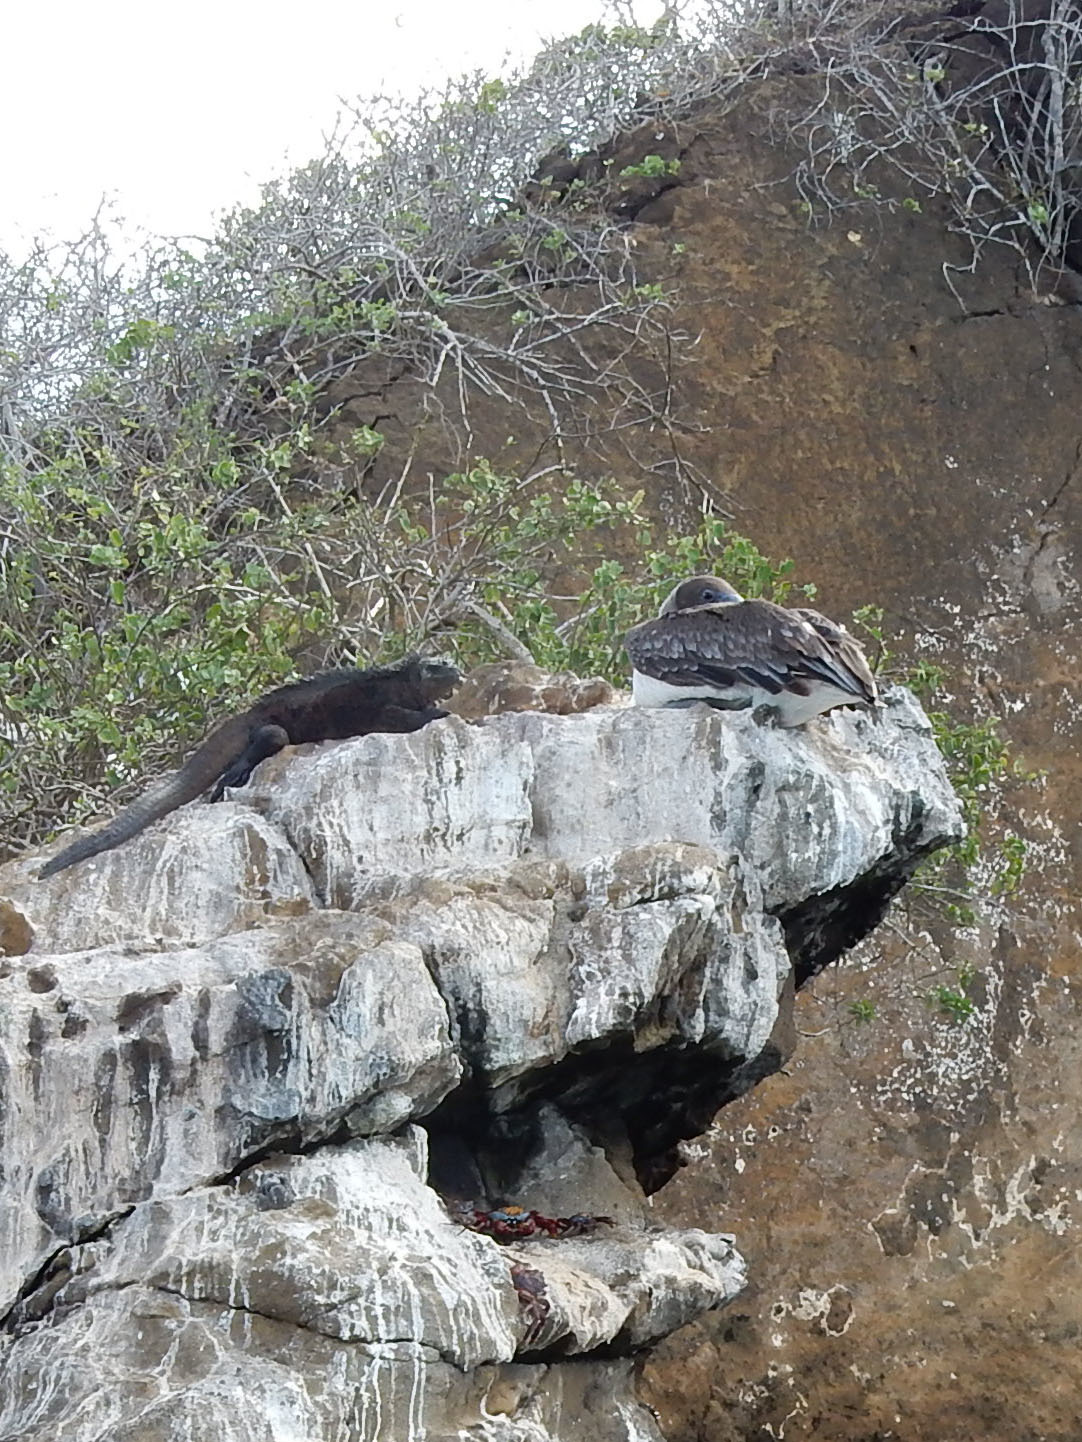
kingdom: Animalia
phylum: Chordata
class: Squamata
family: Iguanidae
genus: Amblyrhynchus
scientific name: Amblyrhynchus cristatus
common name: Marine iguana
